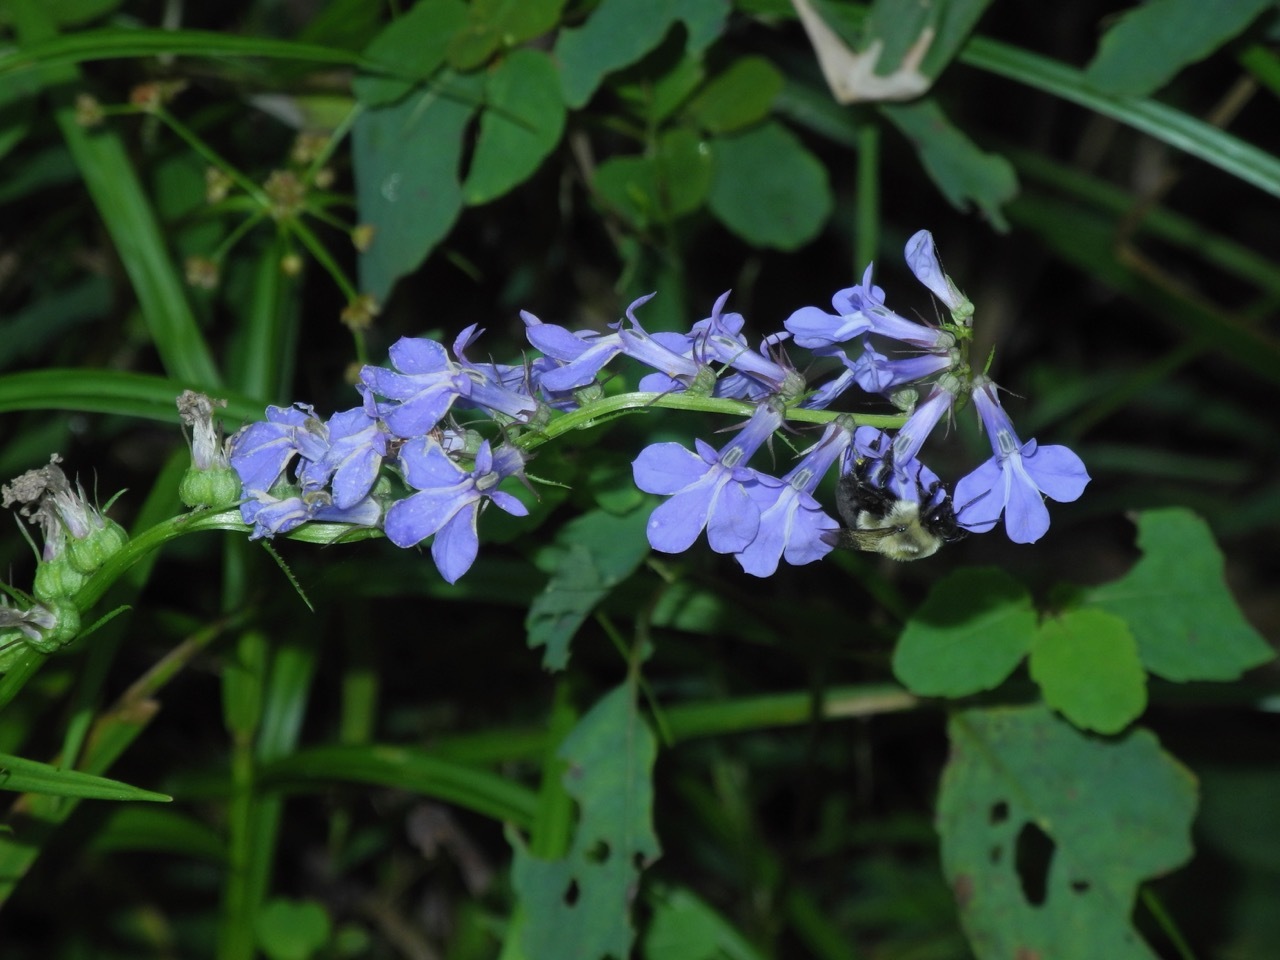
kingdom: Plantae
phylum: Tracheophyta
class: Magnoliopsida
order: Asterales
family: Campanulaceae
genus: Lobelia
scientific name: Lobelia amoena
